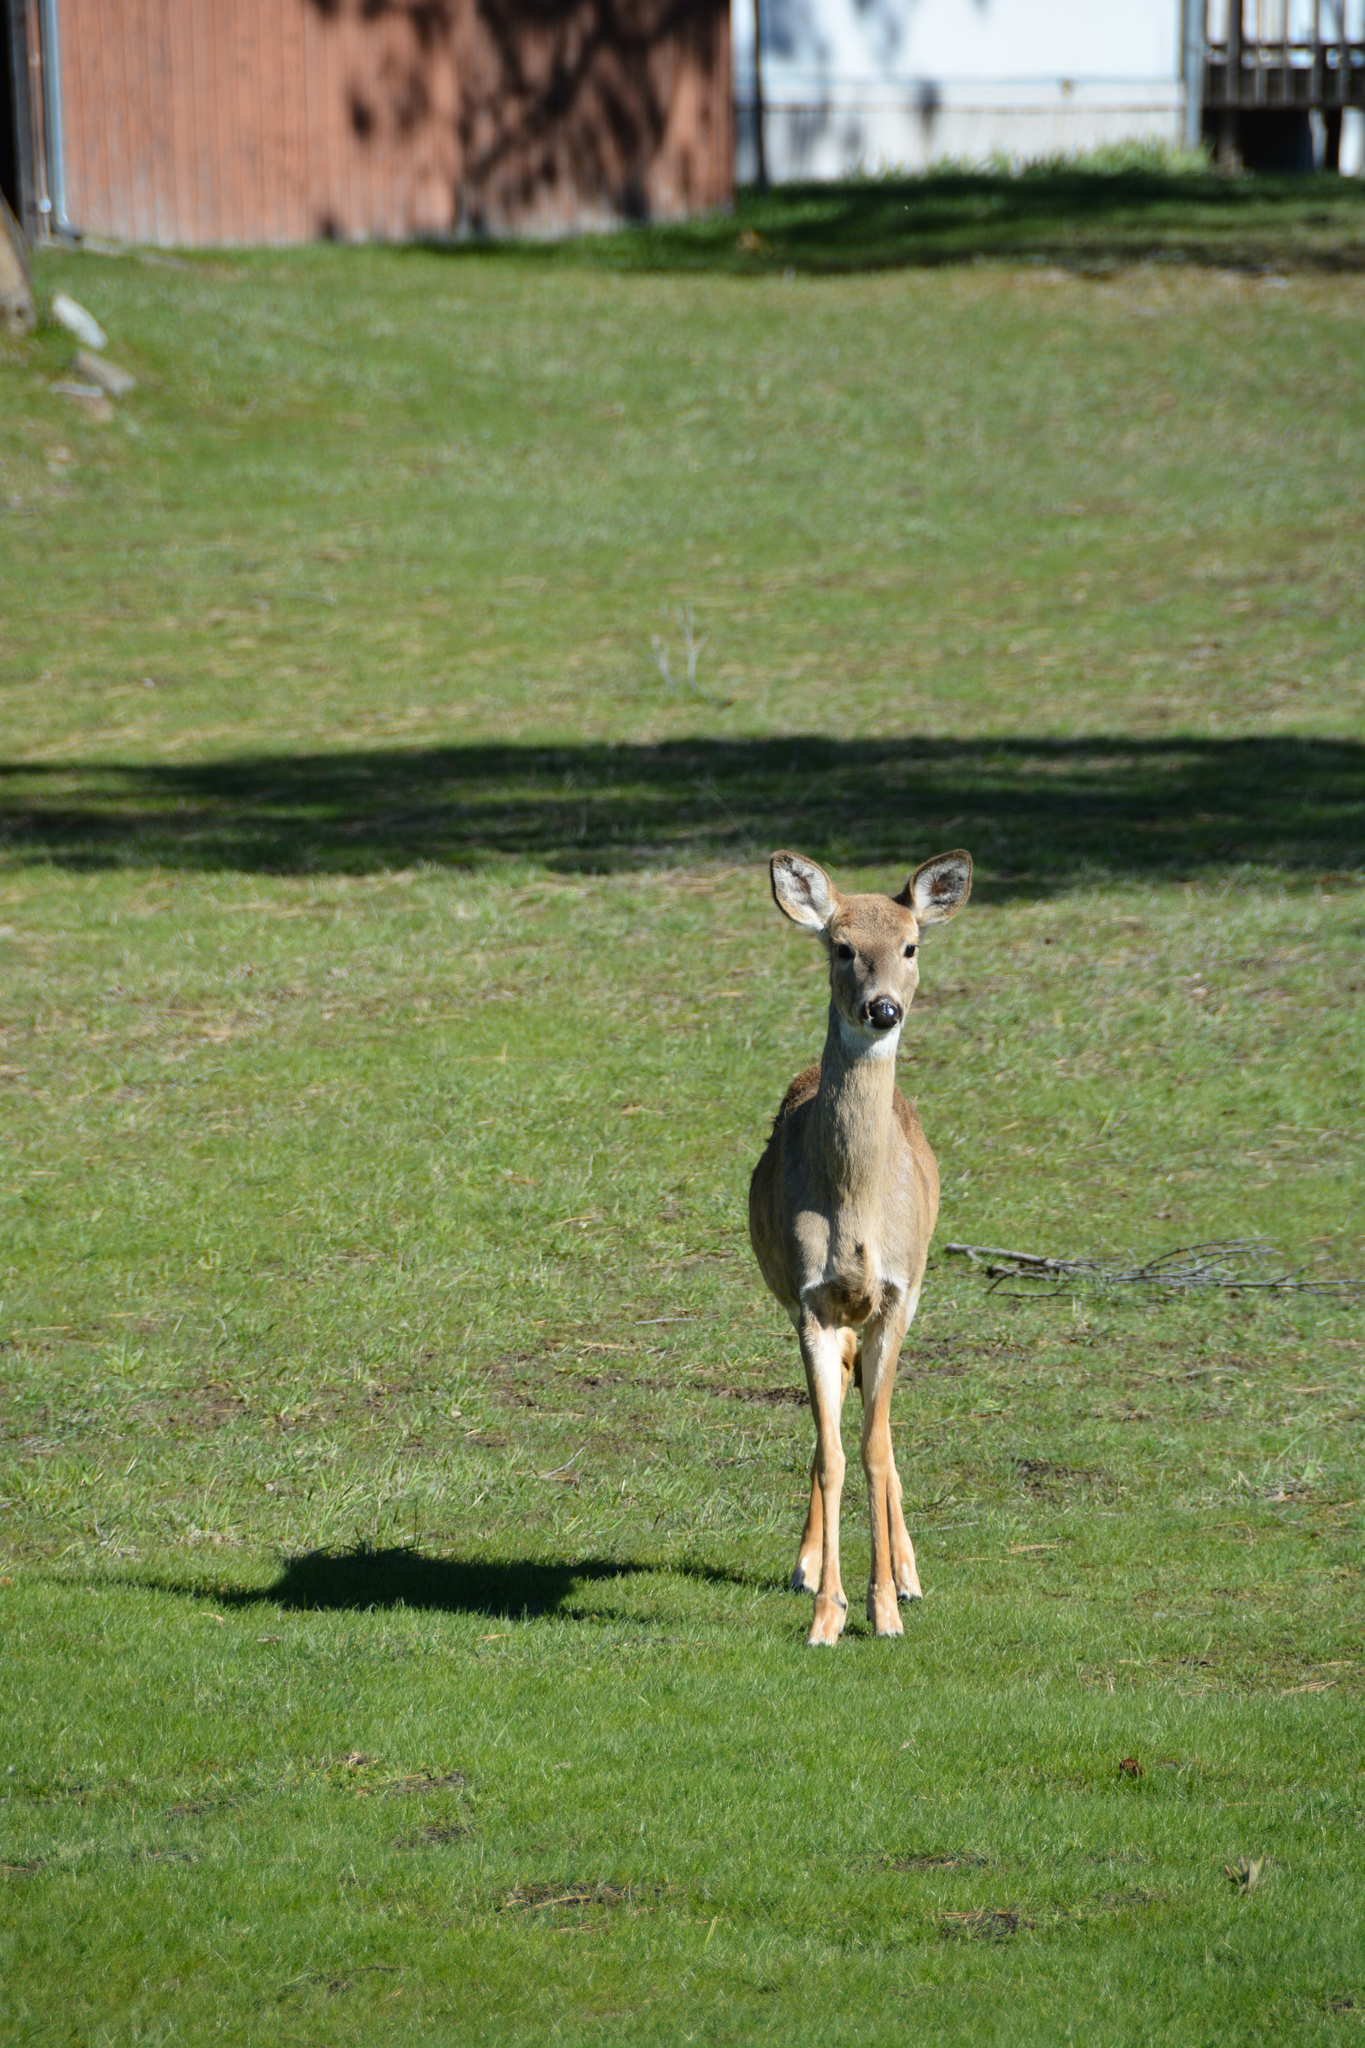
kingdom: Animalia
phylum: Chordata
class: Mammalia
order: Artiodactyla
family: Cervidae
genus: Odocoileus
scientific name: Odocoileus virginianus
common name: White-tailed deer
